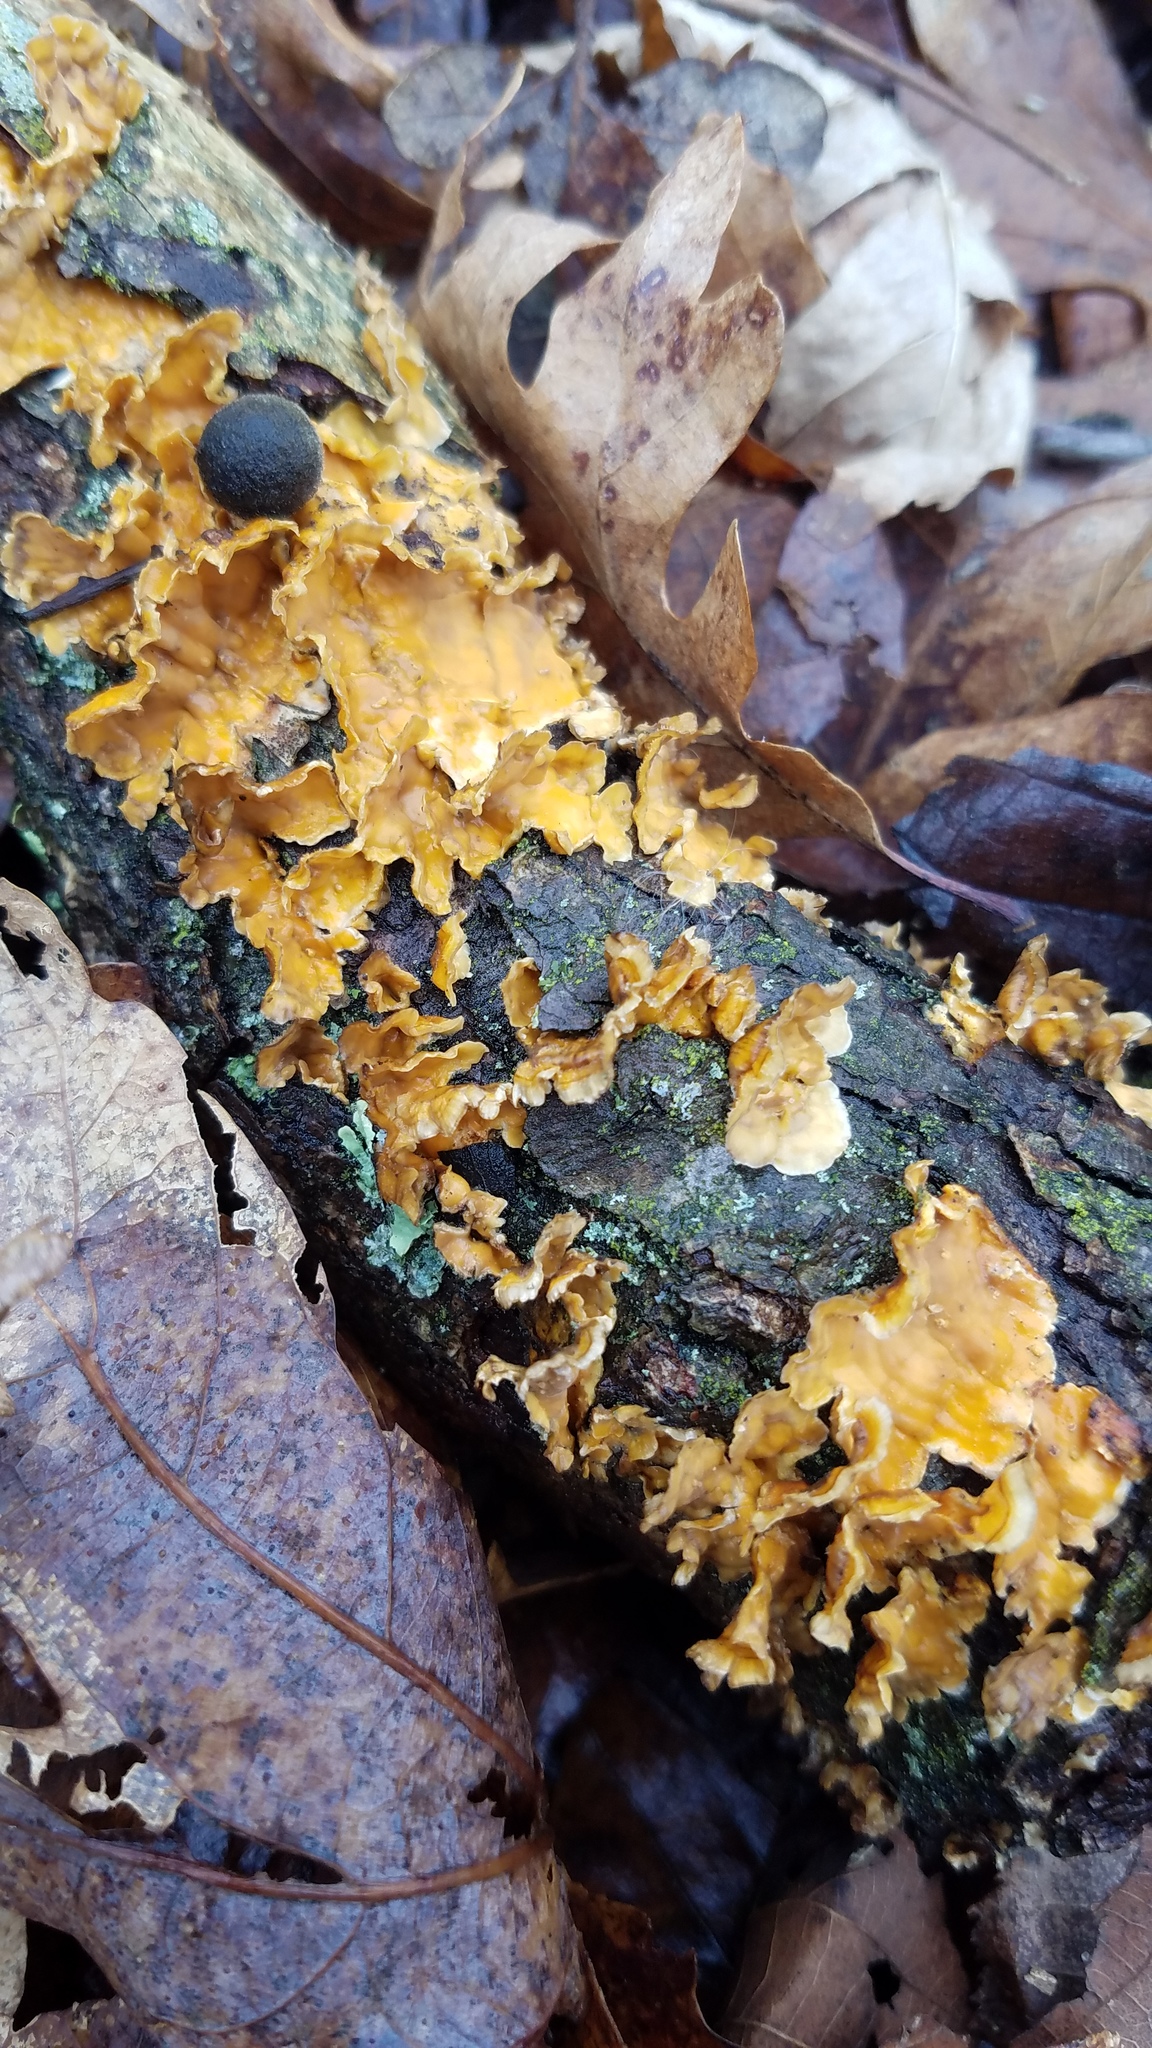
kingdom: Fungi
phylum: Basidiomycota
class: Agaricomycetes
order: Russulales
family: Stereaceae
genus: Stereum
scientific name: Stereum complicatum
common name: Crowded parchment
